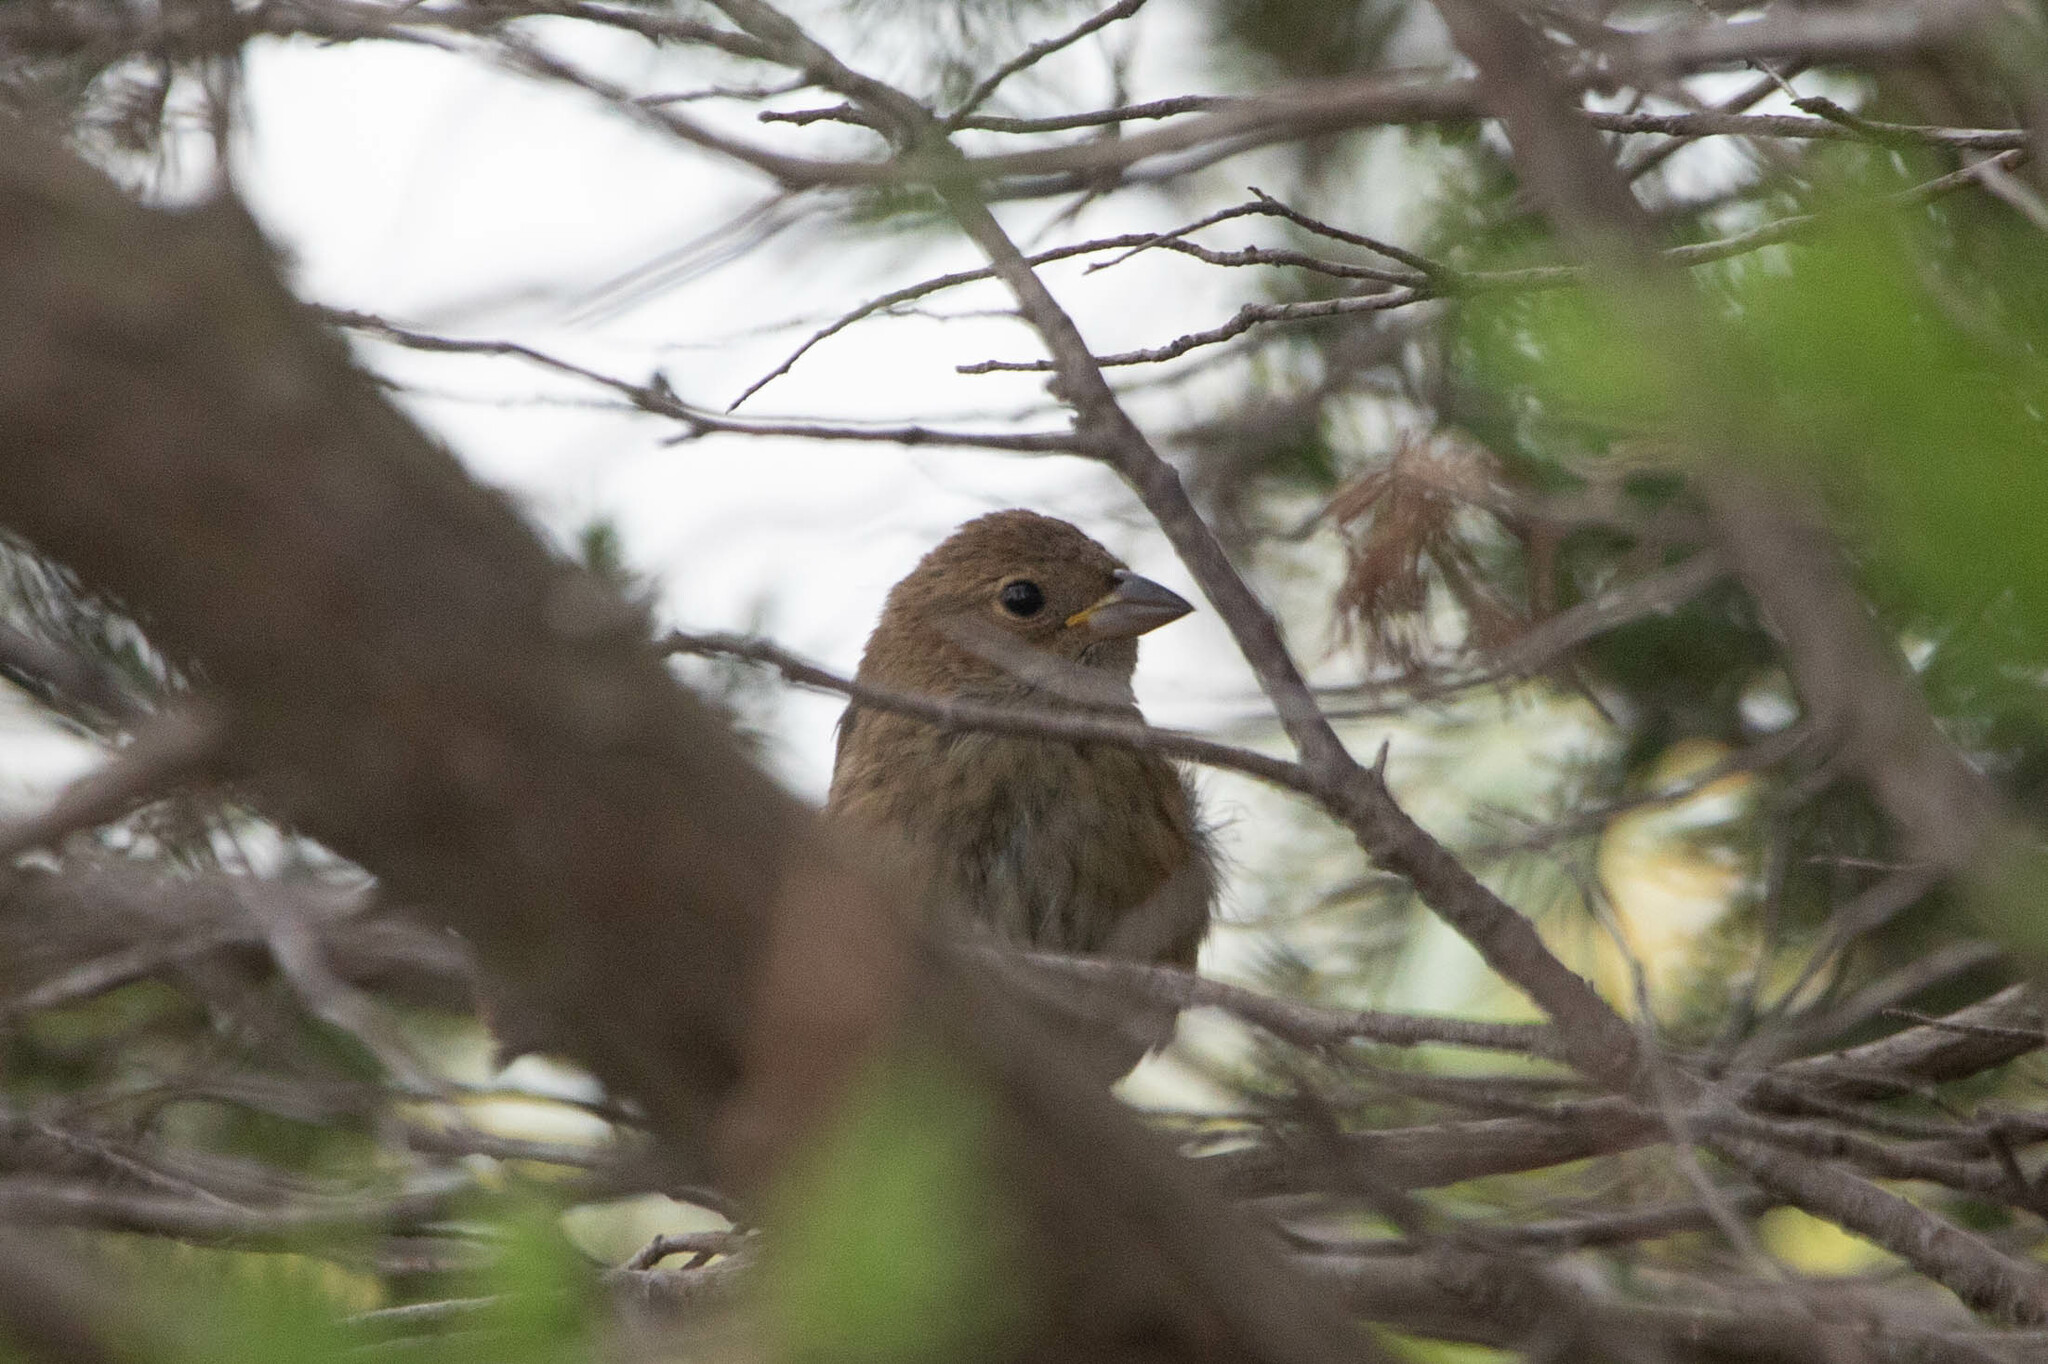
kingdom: Animalia
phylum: Chordata
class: Aves
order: Passeriformes
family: Cardinalidae
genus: Passerina
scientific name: Passerina cyanea
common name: Indigo bunting
